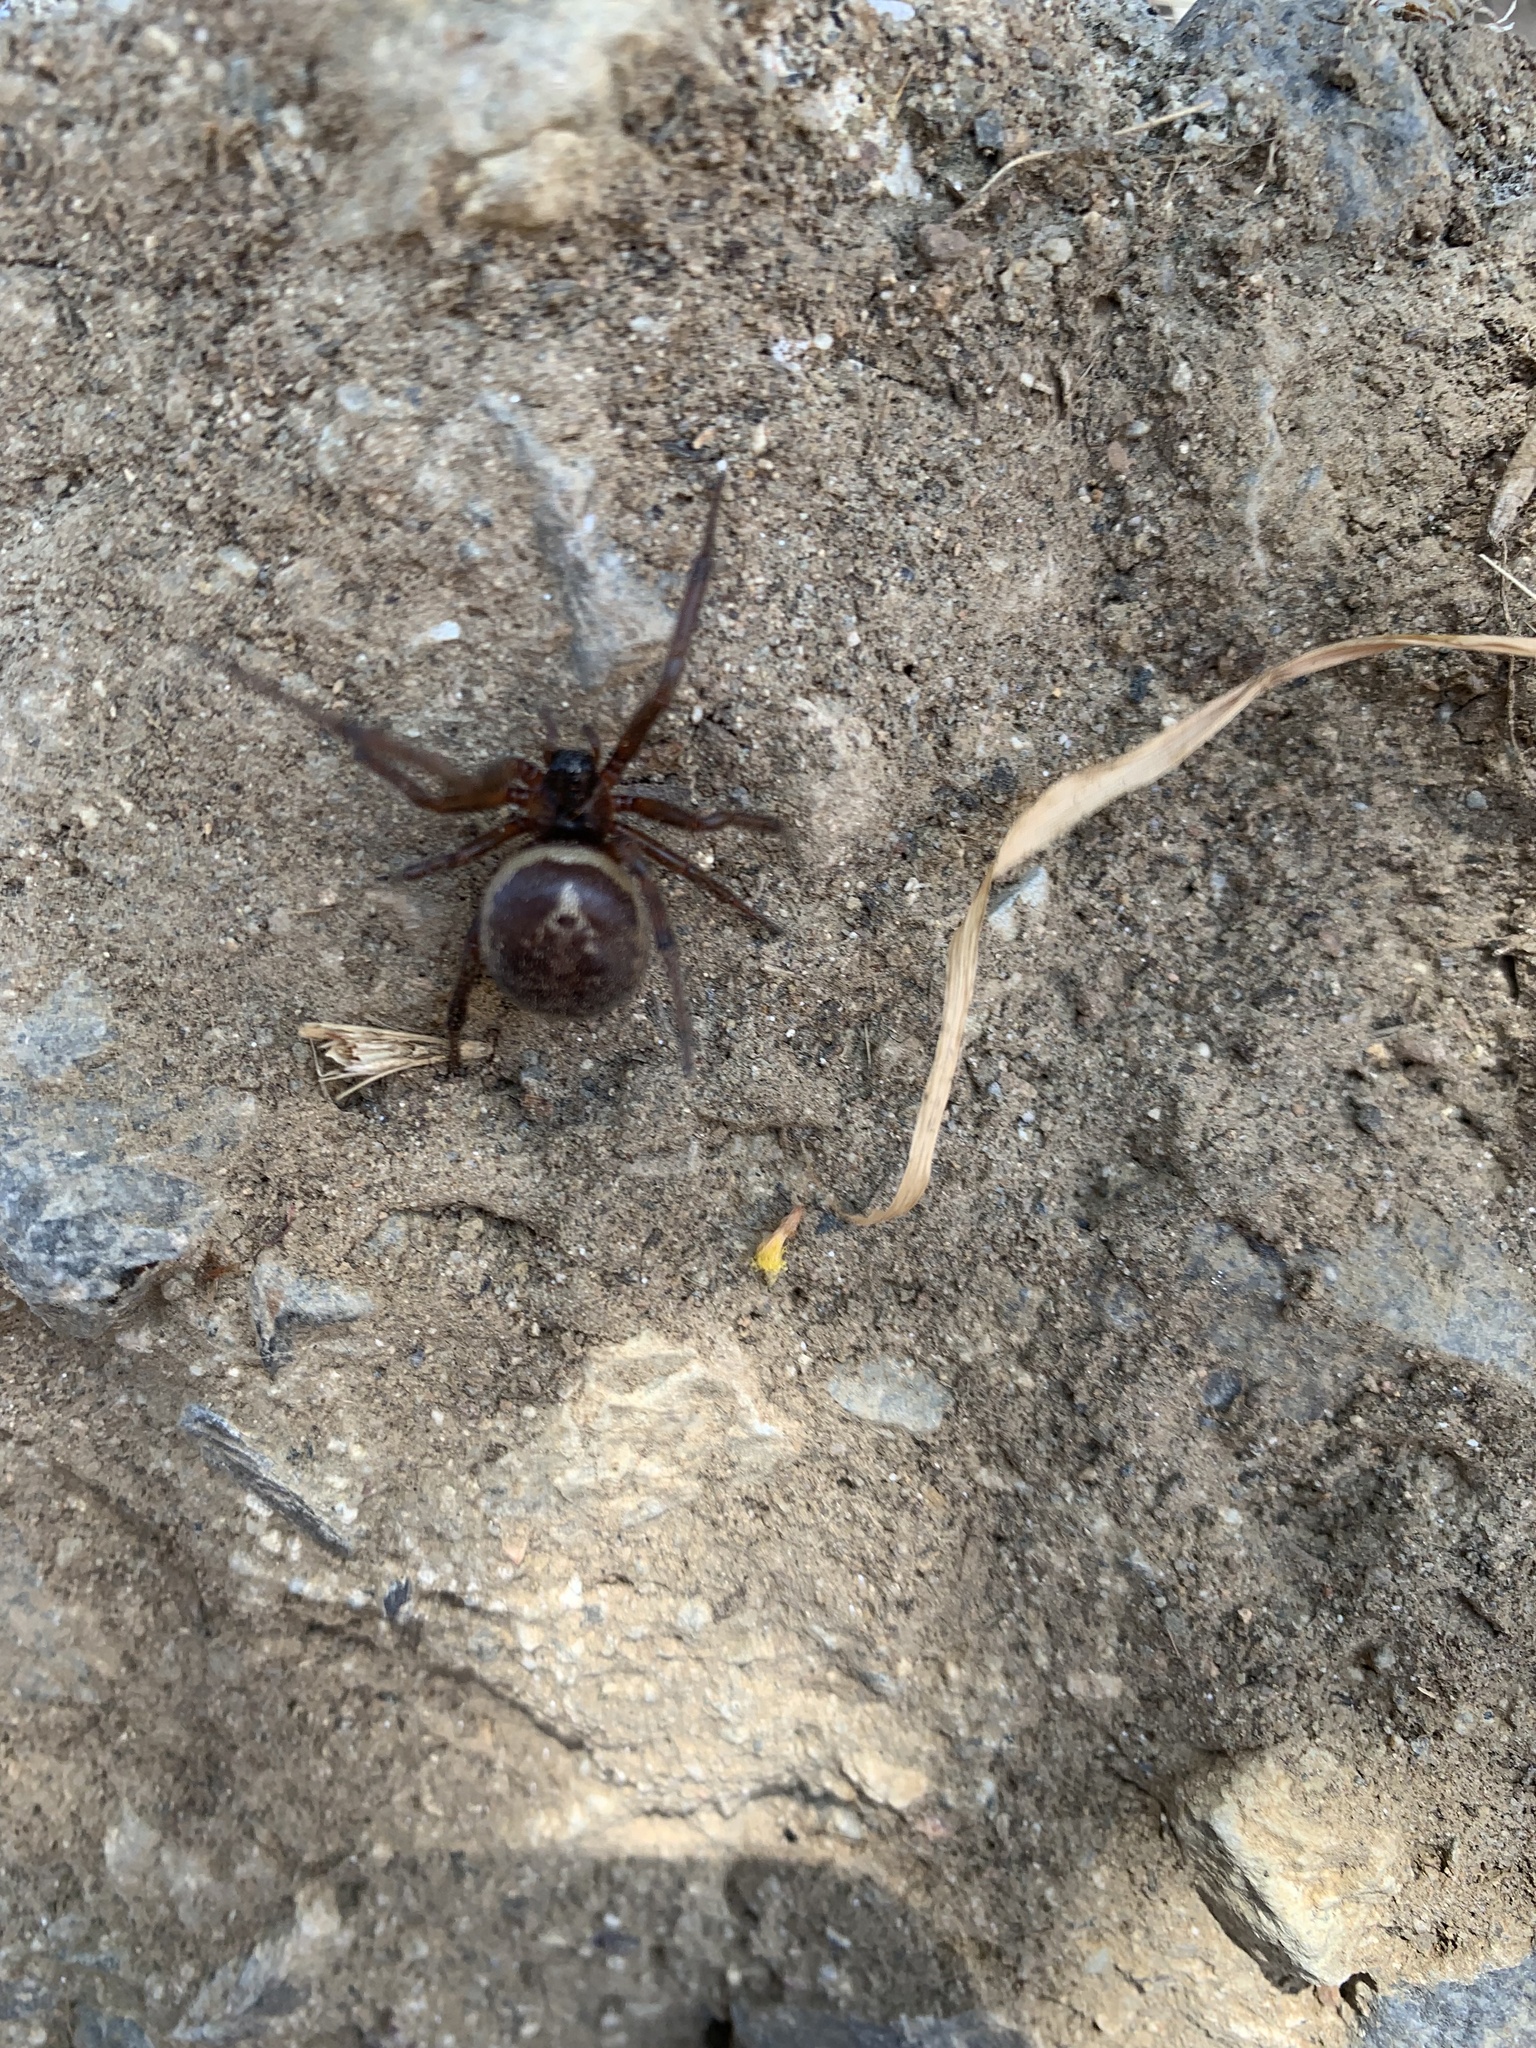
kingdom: Animalia
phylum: Arthropoda
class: Arachnida
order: Araneae
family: Theridiidae
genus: Steatoda
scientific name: Steatoda nobilis
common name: Cobweb weaver
